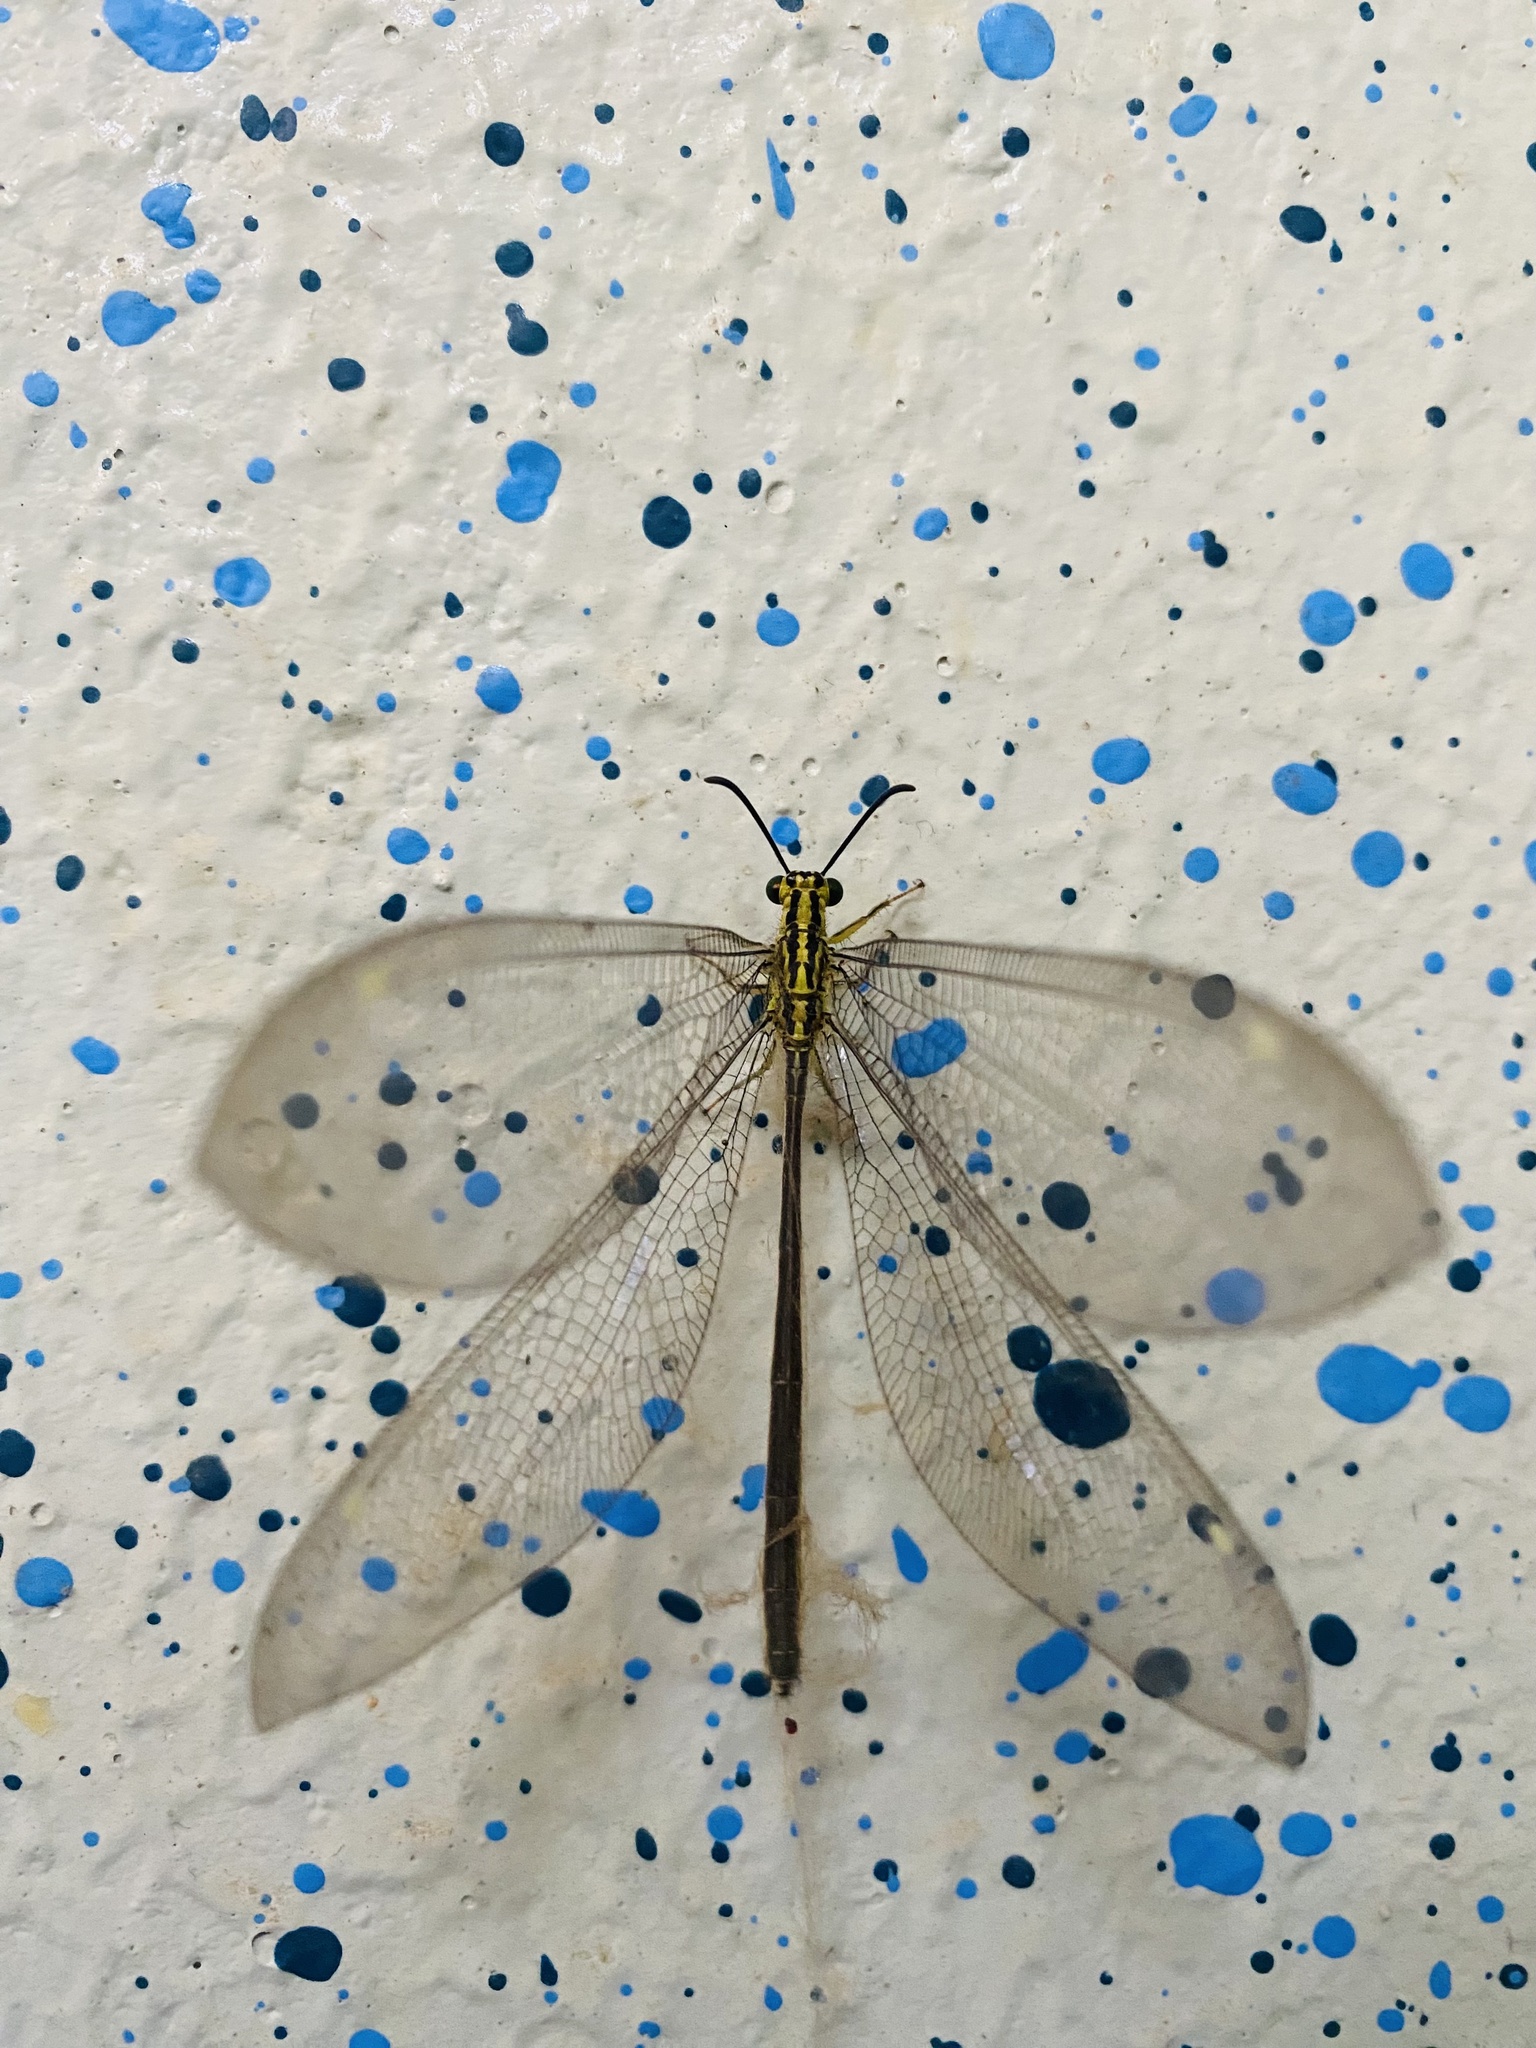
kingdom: Animalia
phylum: Arthropoda
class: Insecta
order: Neuroptera
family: Myrmeleontidae
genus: Hagenomyia
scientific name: Hagenomyia tristis
